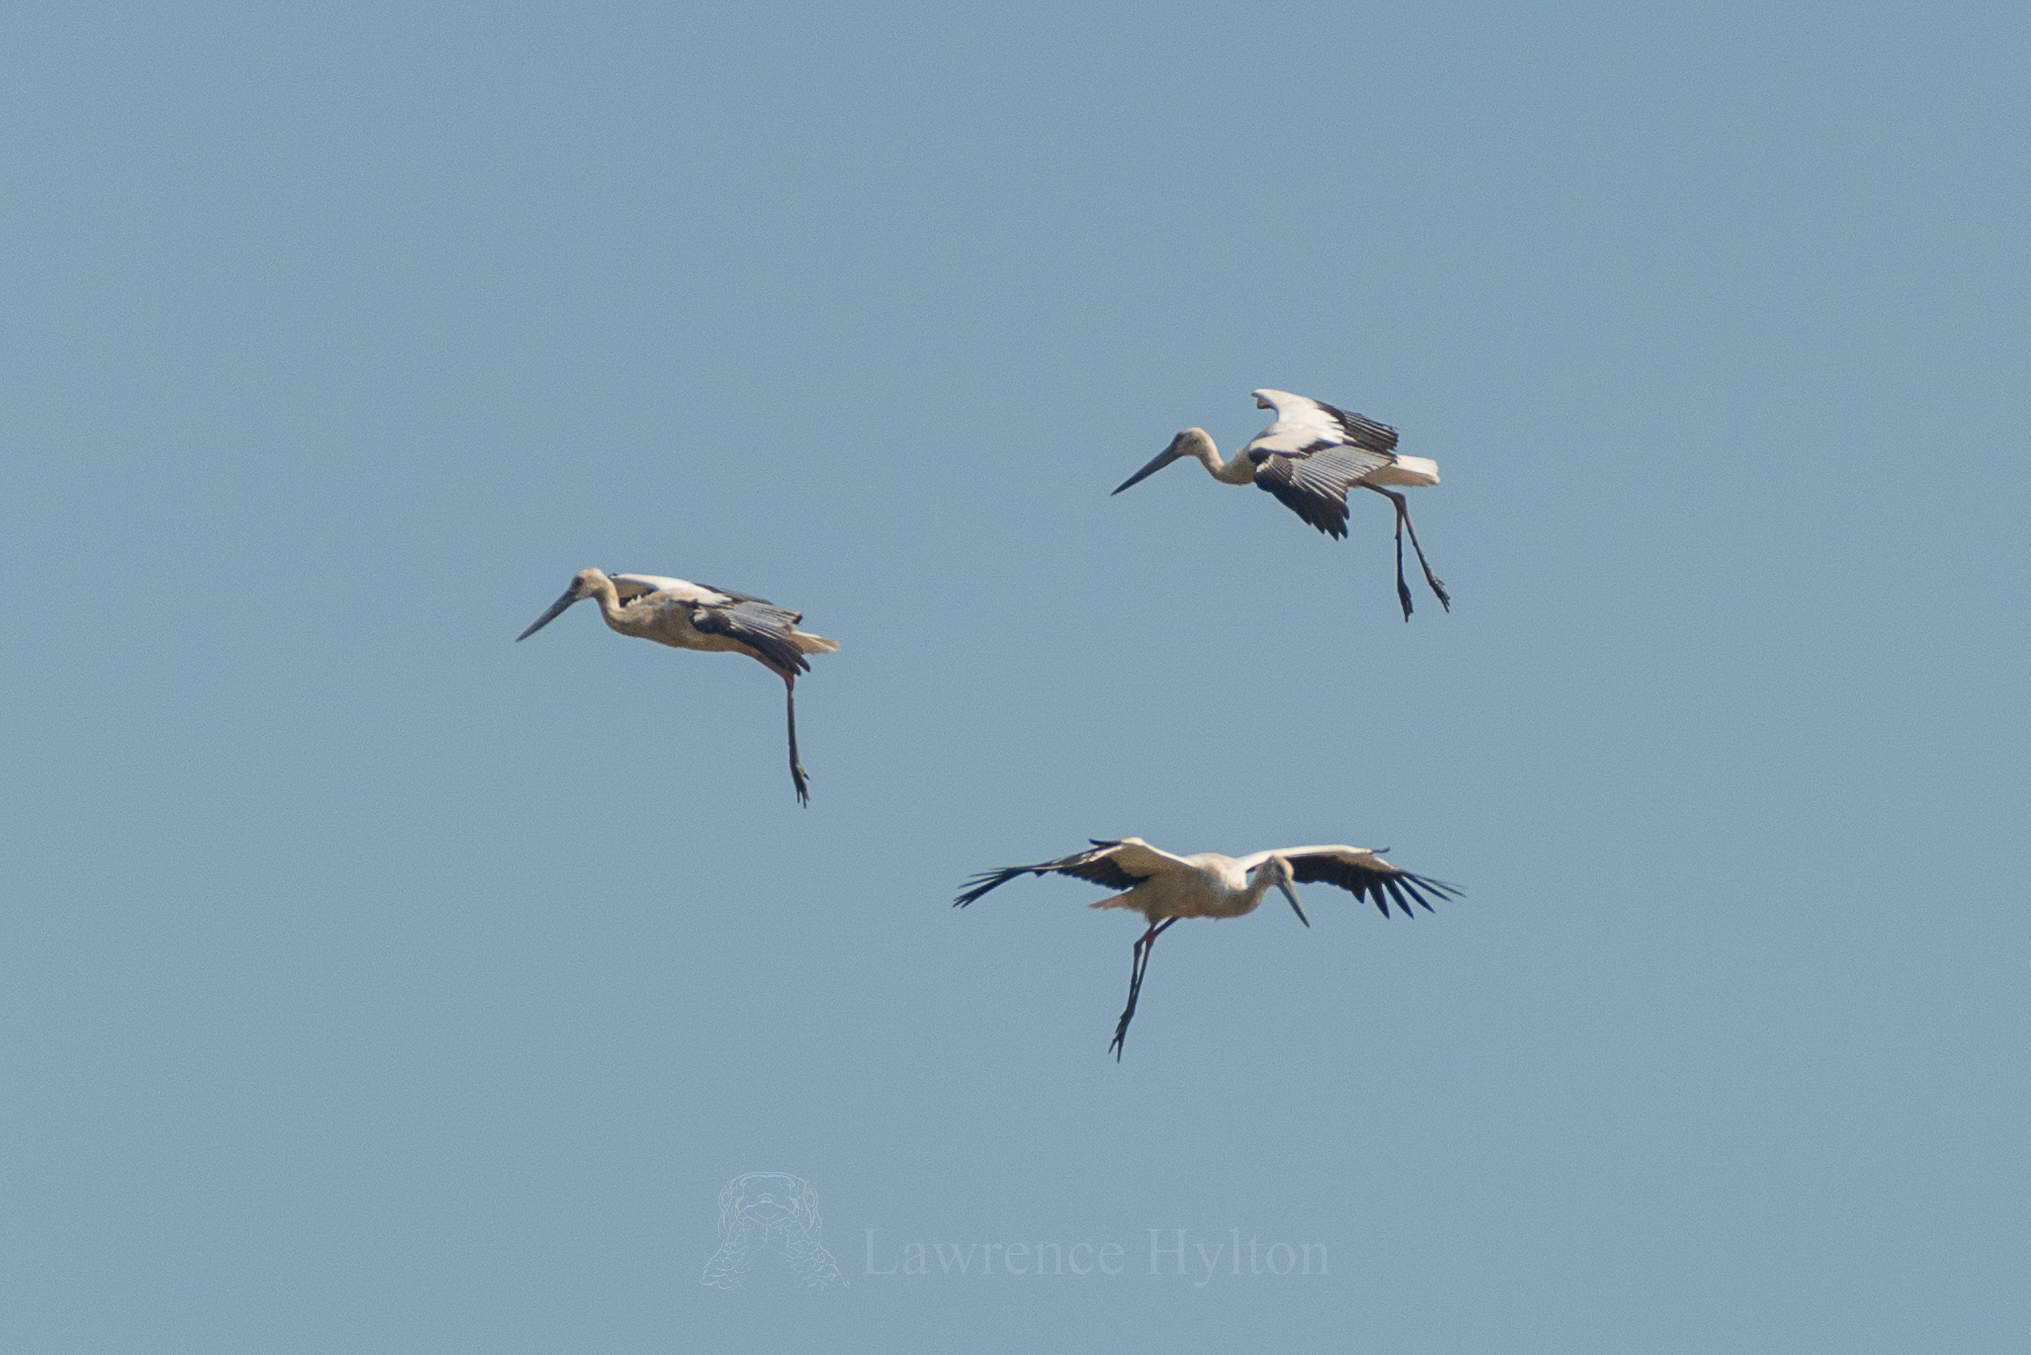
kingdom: Animalia
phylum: Chordata
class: Aves
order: Ciconiiformes
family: Ciconiidae
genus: Ciconia
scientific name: Ciconia boyciana
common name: Oriental stork
